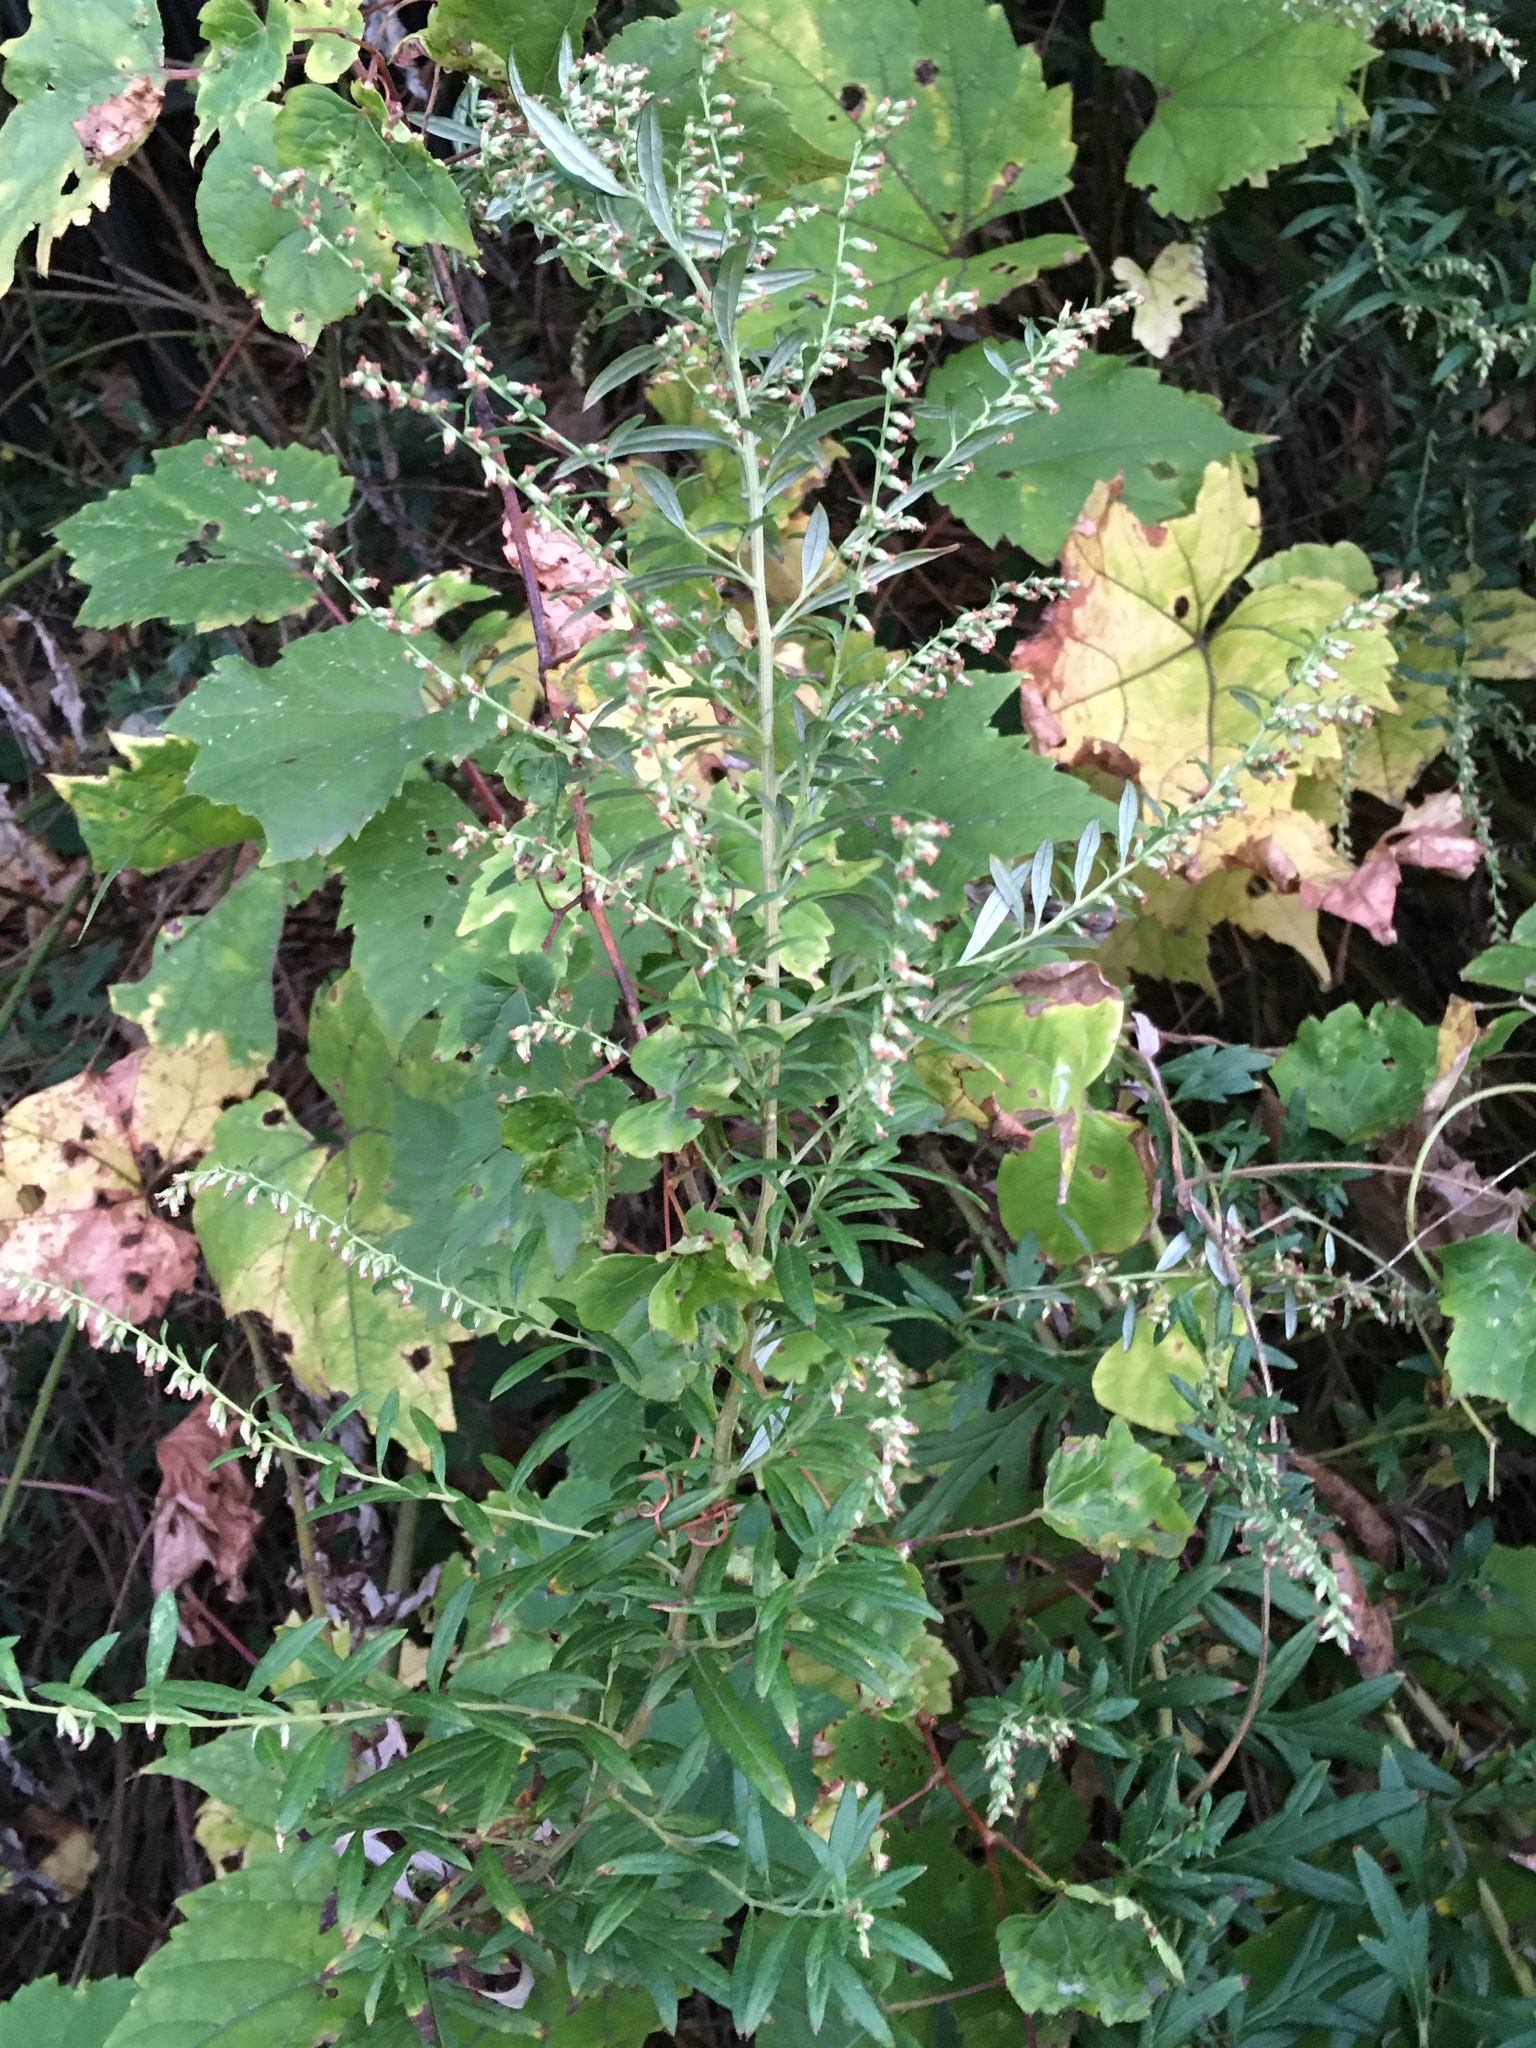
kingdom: Plantae
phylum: Tracheophyta
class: Magnoliopsida
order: Asterales
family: Asteraceae
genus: Artemisia
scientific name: Artemisia vulgaris
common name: Mugwort
